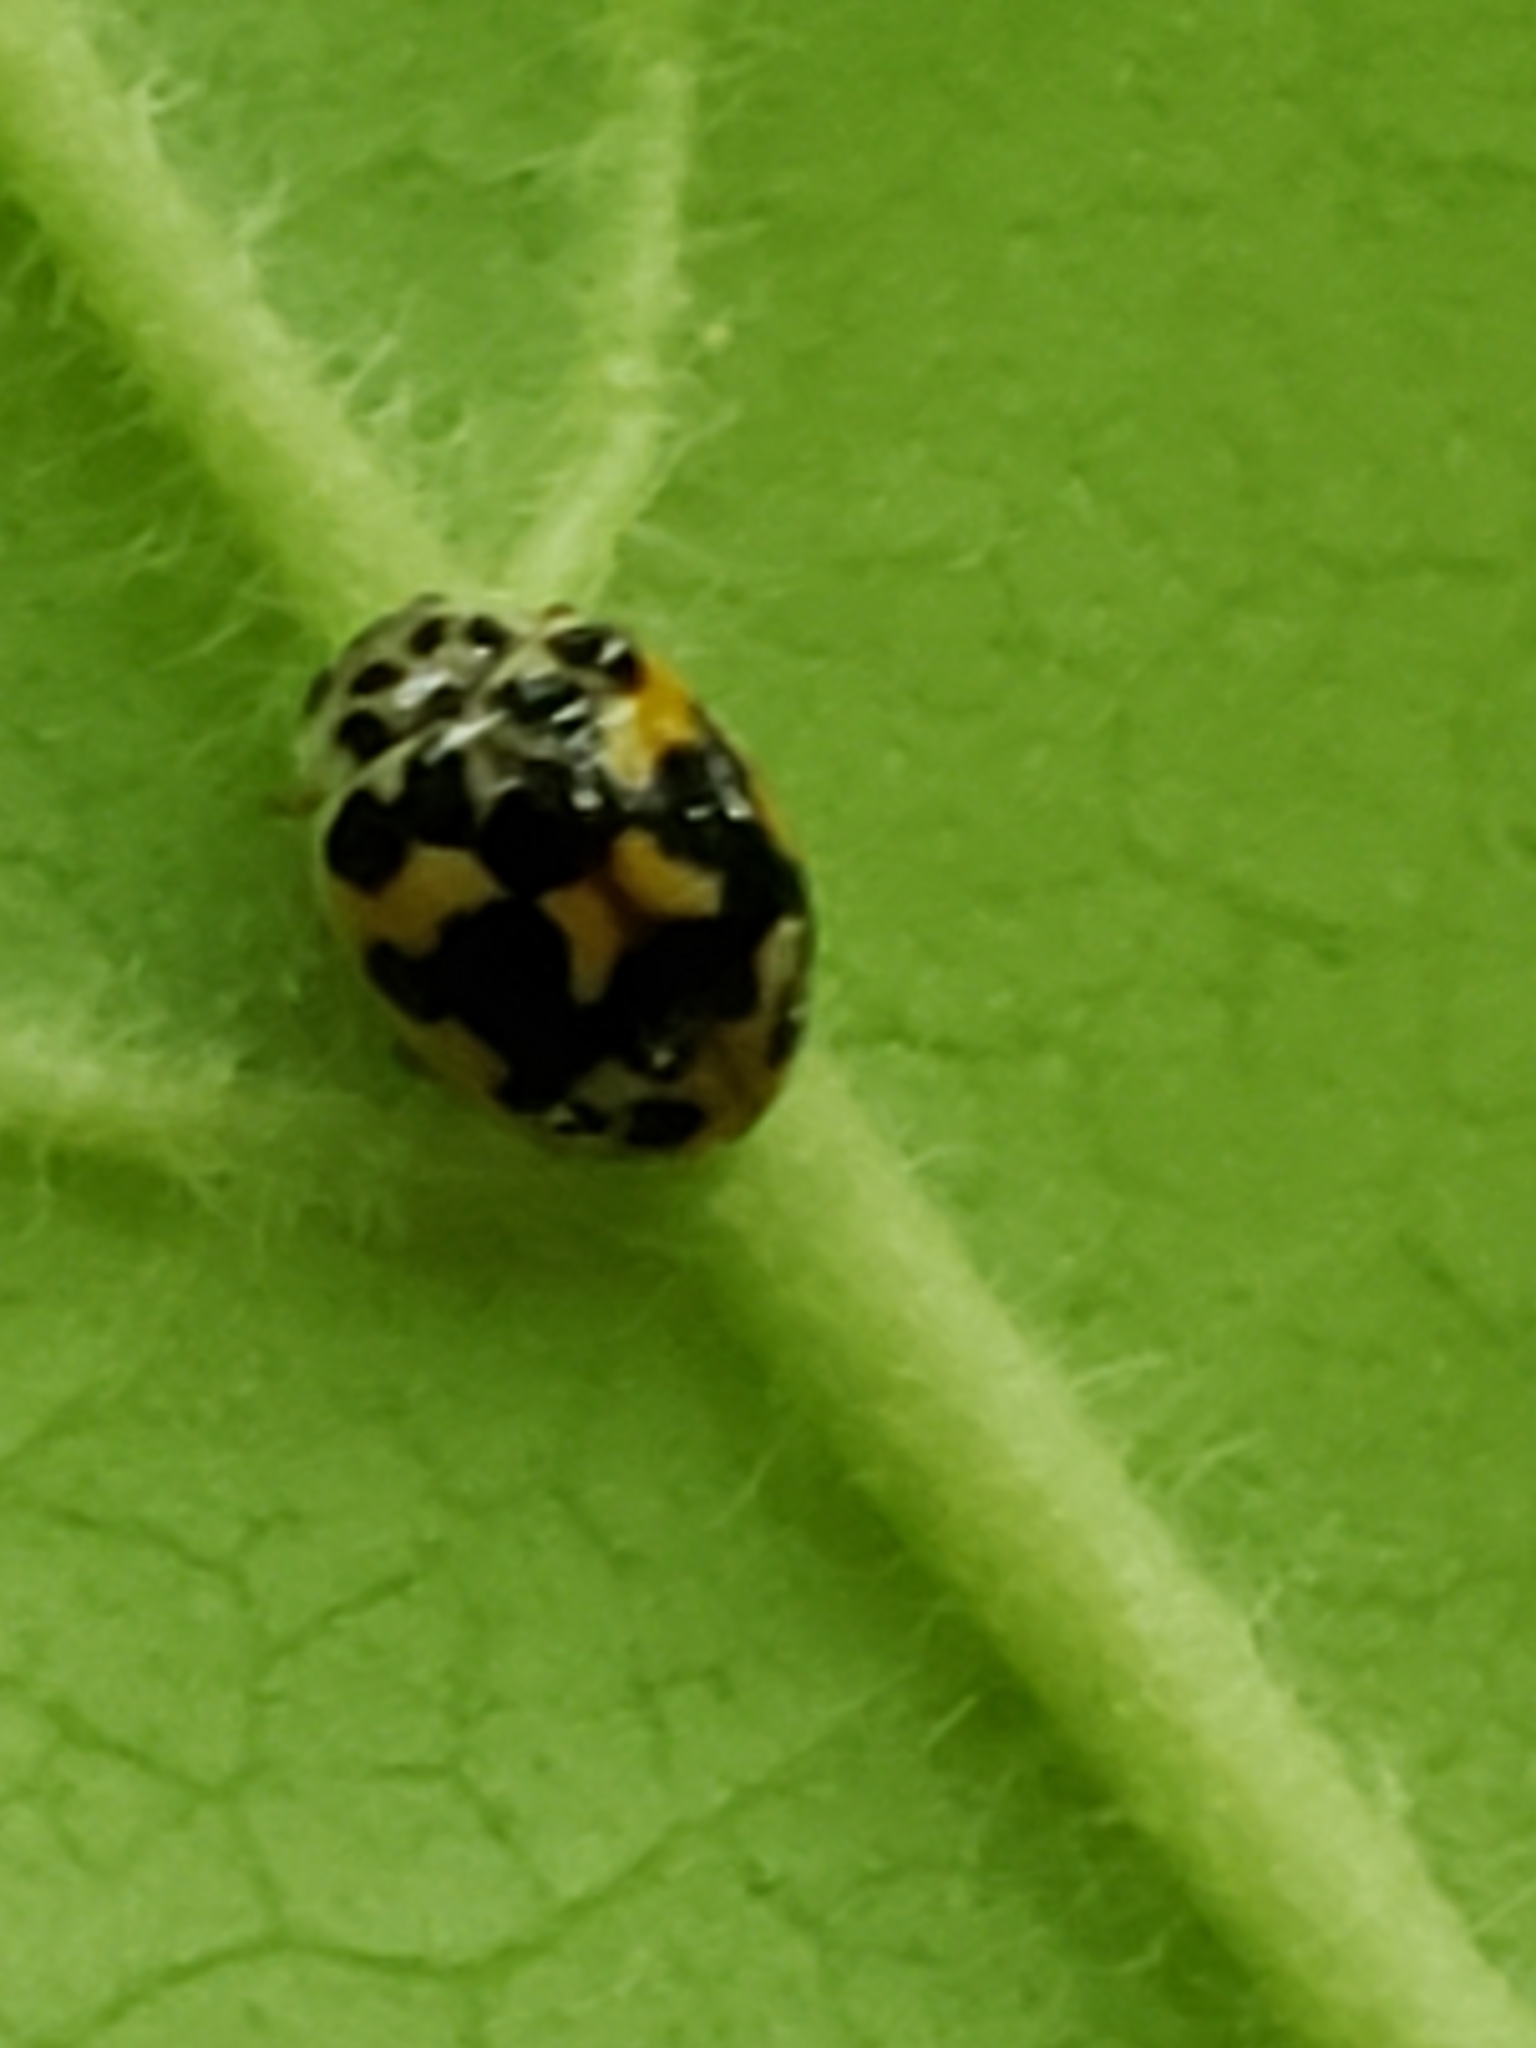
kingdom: Animalia
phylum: Arthropoda
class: Insecta
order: Coleoptera
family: Coccinellidae
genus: Psyllobora
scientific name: Psyllobora vigintimaculata
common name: Ladybird beetle
